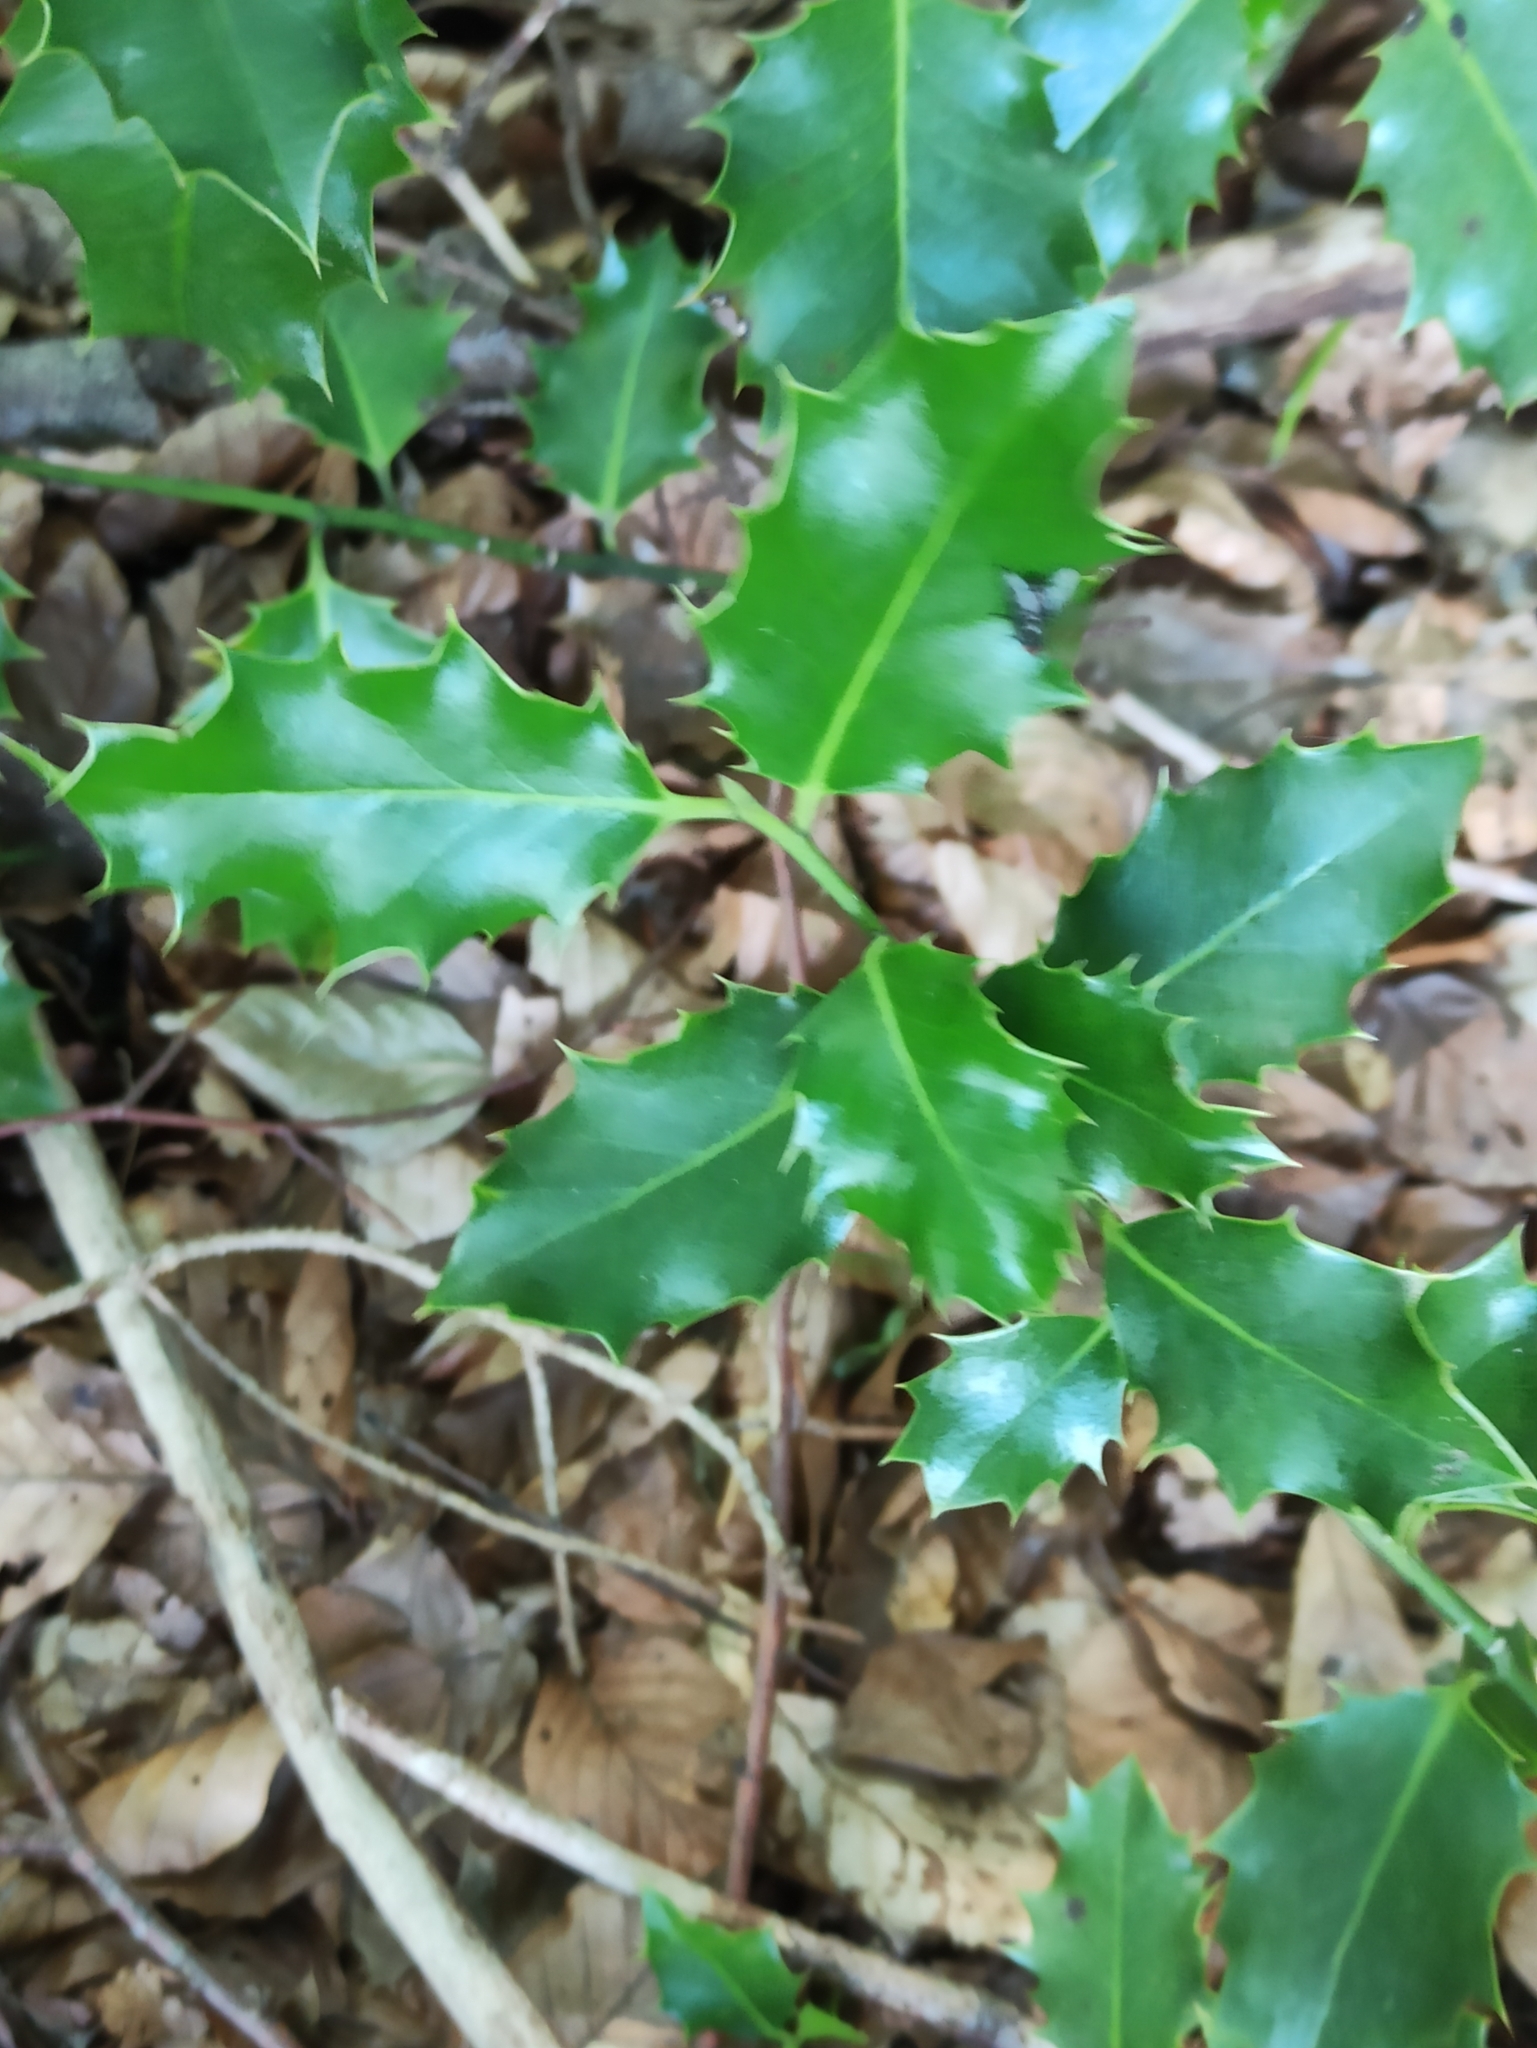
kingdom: Plantae
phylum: Tracheophyta
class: Magnoliopsida
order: Aquifoliales
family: Aquifoliaceae
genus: Ilex
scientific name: Ilex aquifolium
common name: English holly
